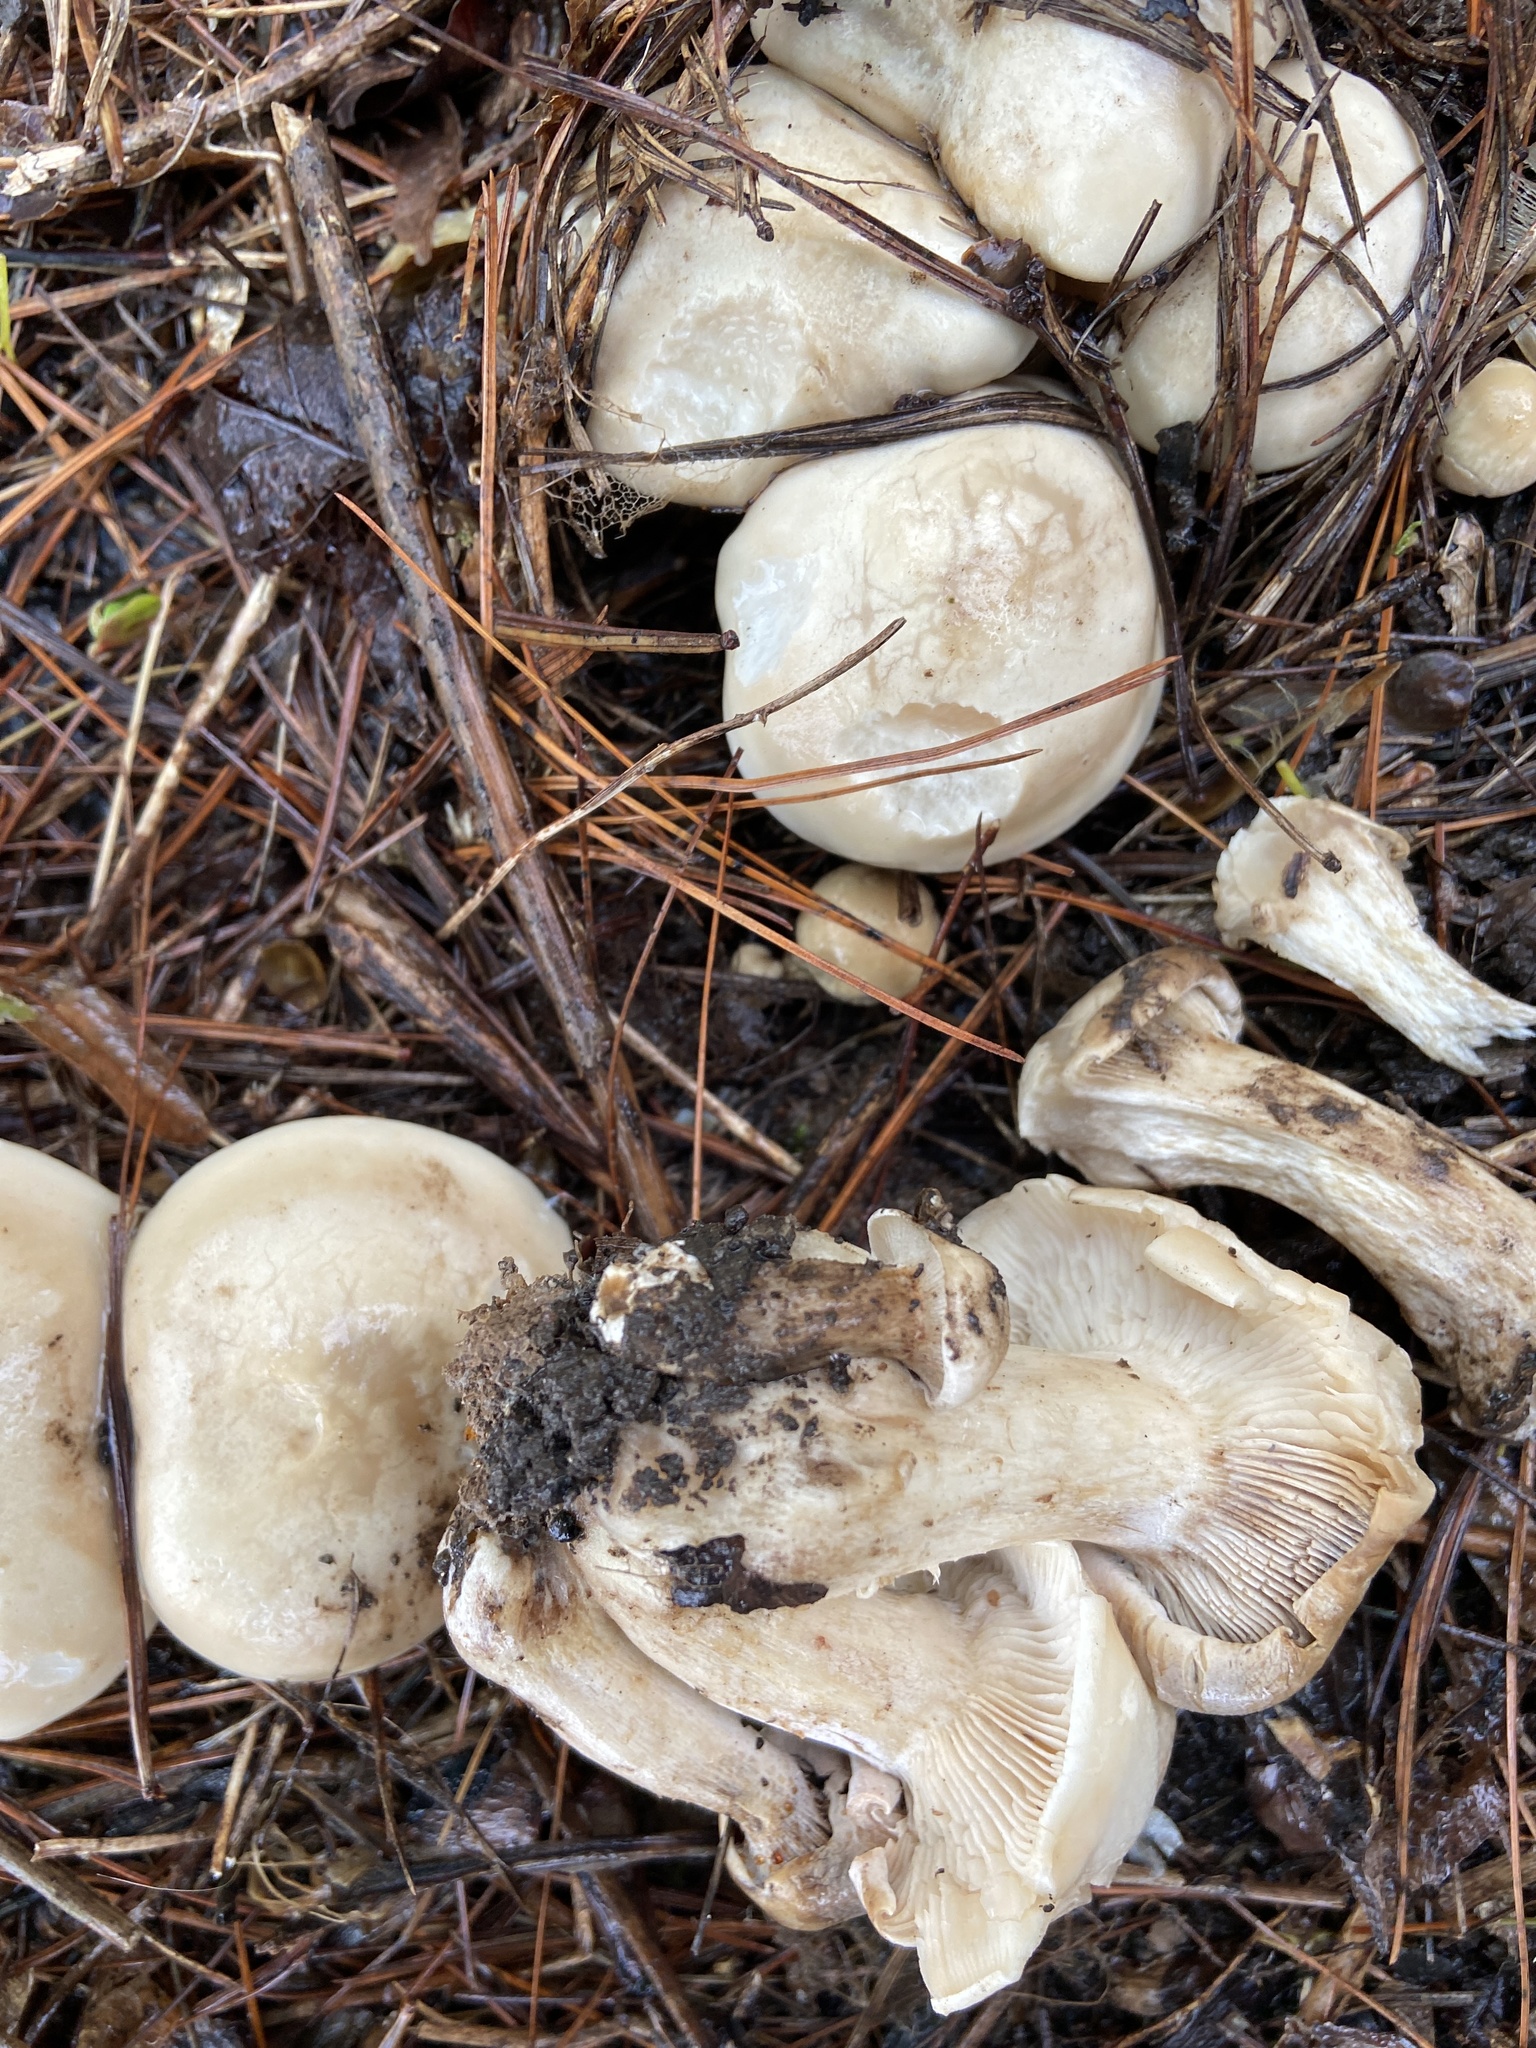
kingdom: Fungi
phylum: Basidiomycota
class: Agaricomycetes
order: Agaricales
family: Lyophyllaceae
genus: Calocybe
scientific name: Calocybe gambosa
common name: St. george's mushroom
